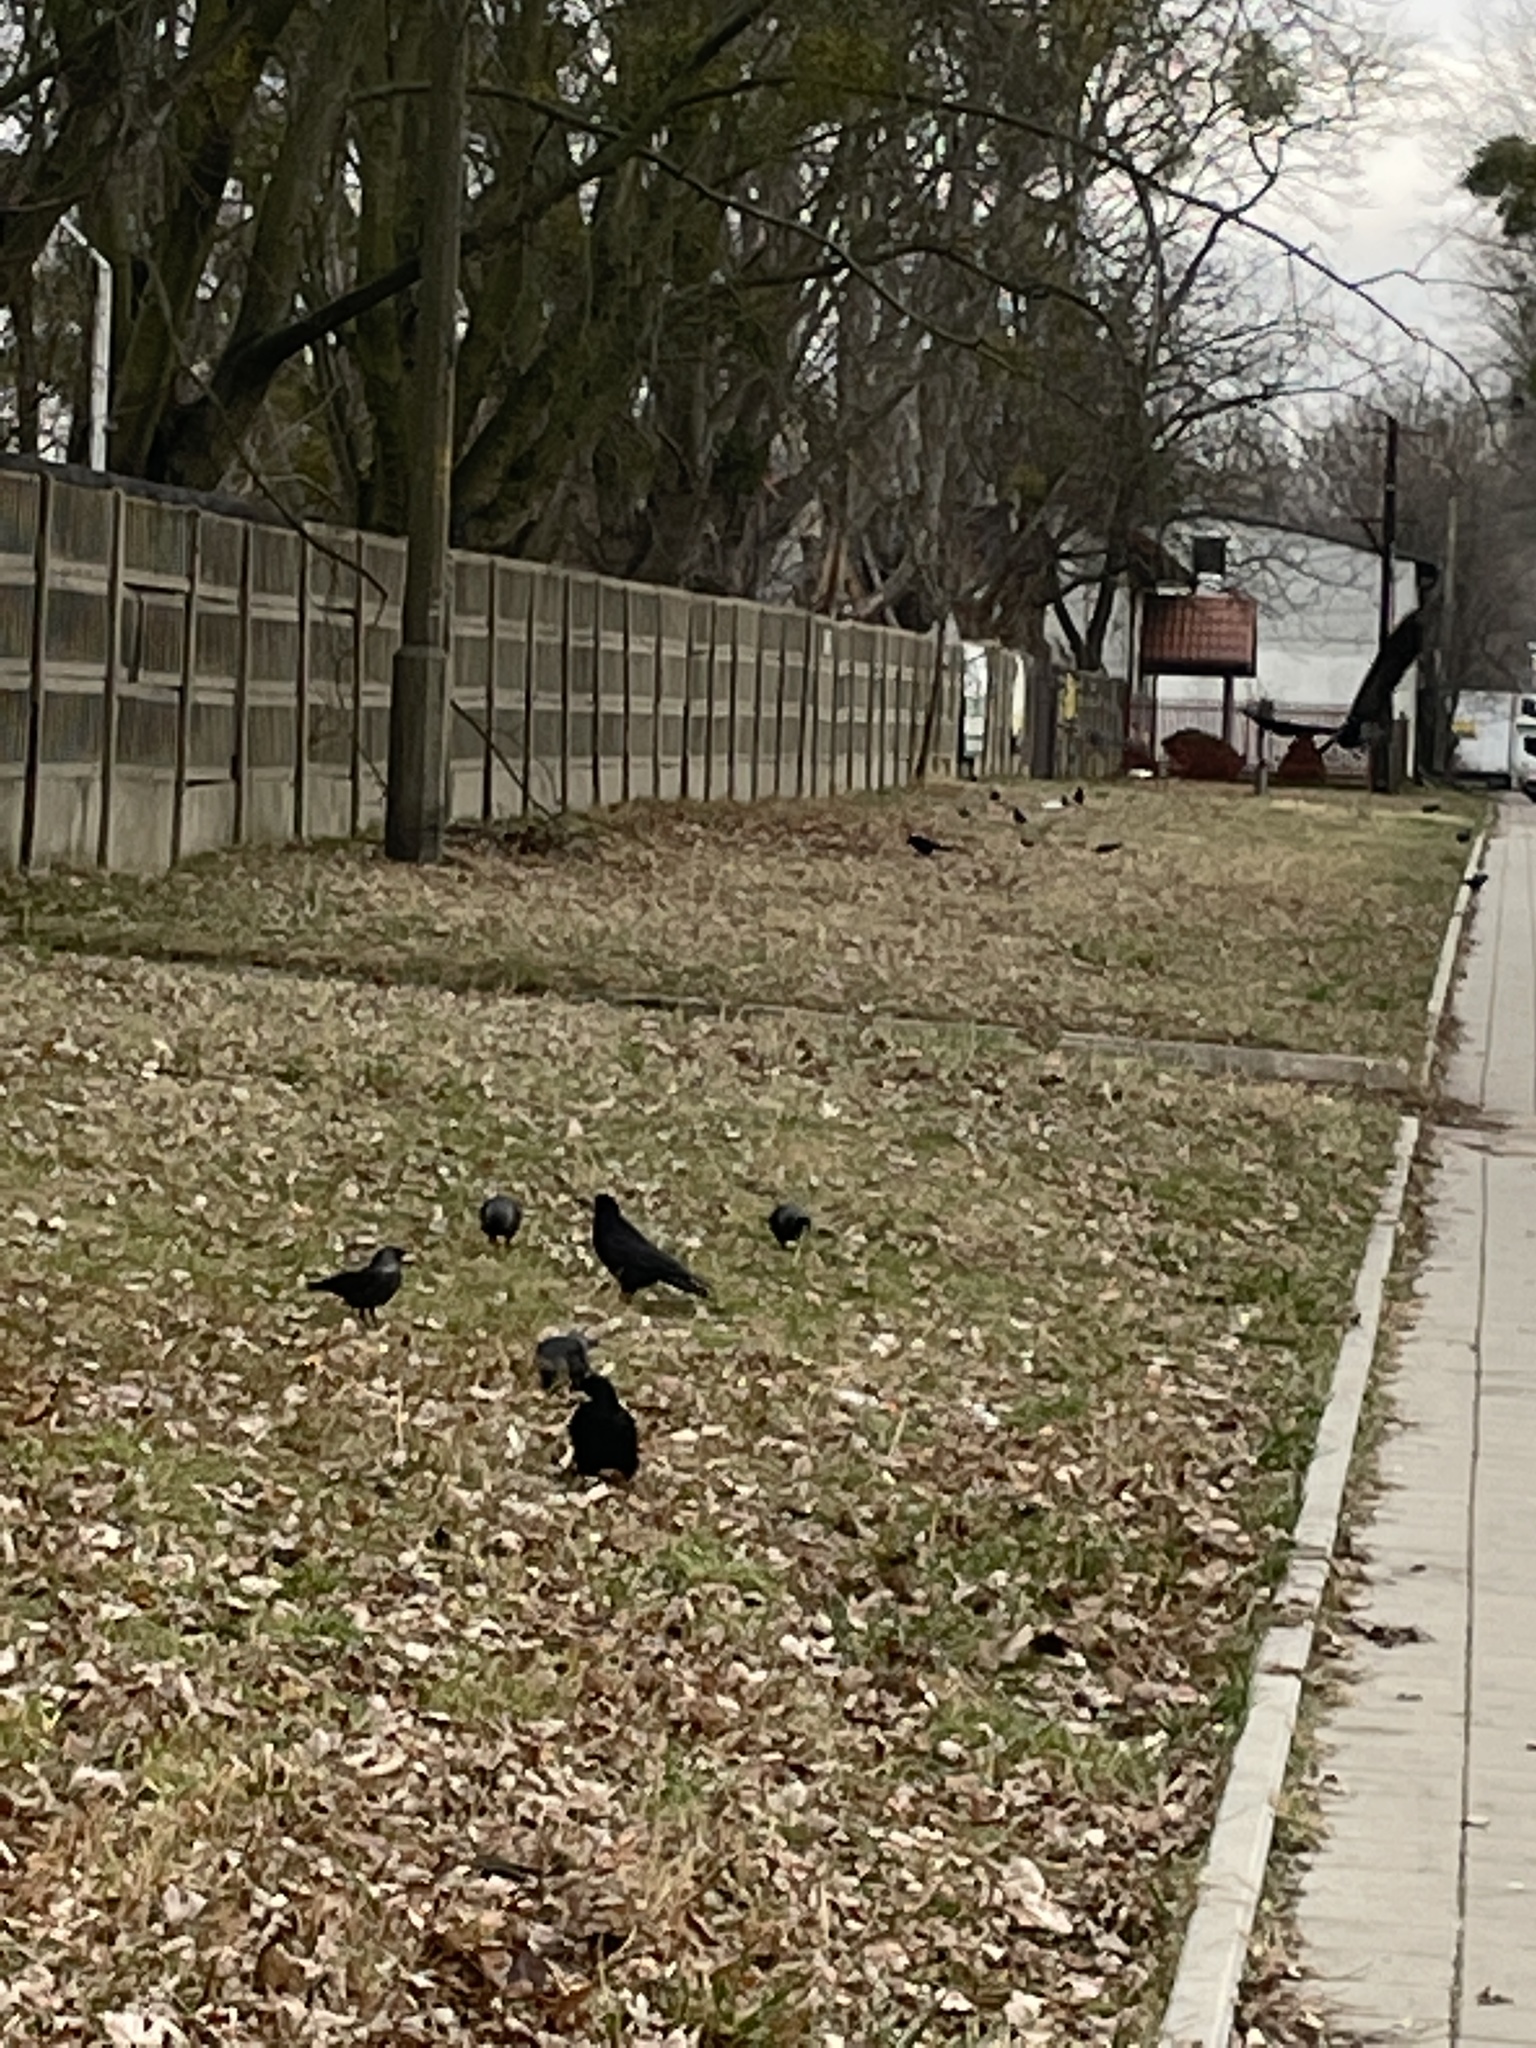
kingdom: Animalia
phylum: Chordata
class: Aves
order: Passeriformes
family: Corvidae
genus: Corvus
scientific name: Corvus frugilegus
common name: Rook
